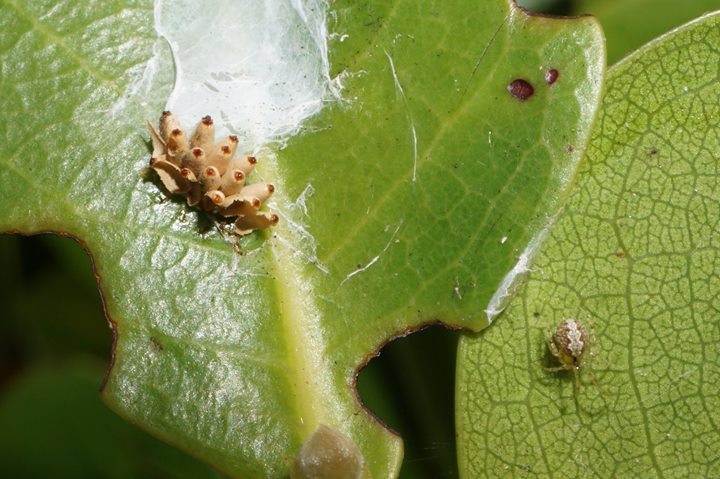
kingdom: Animalia
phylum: Arthropoda
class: Insecta
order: Coleoptera
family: Chrysomelidae
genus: Chelymorpha
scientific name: Chelymorpha cassidea
